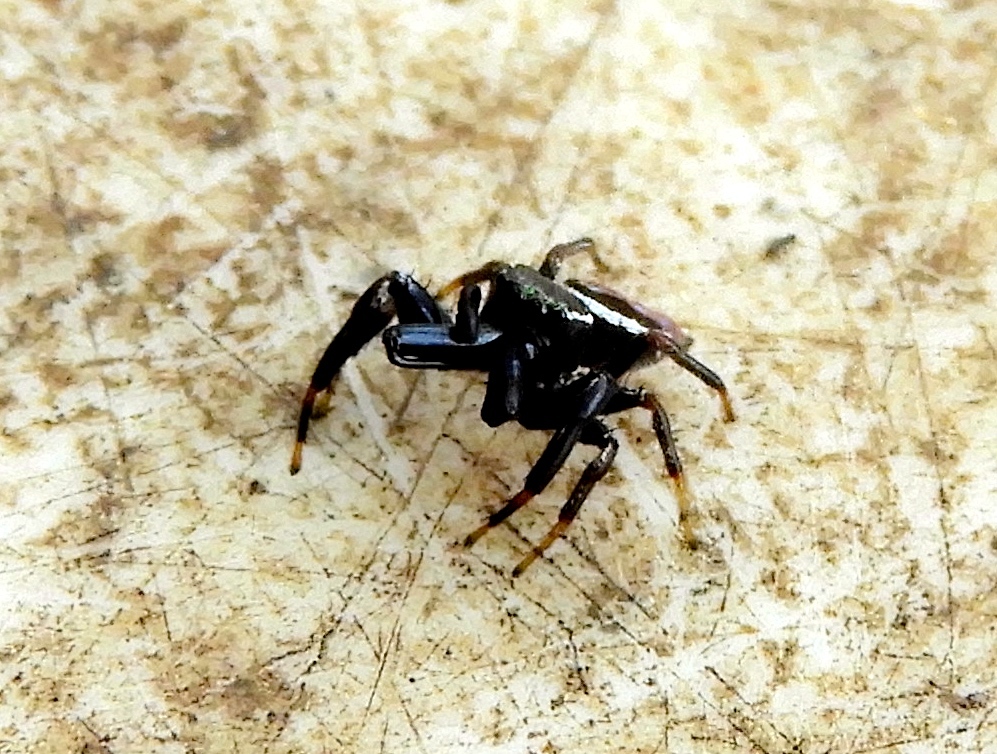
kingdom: Animalia
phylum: Arthropoda
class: Arachnida
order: Araneae
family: Salticidae
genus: Messua
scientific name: Messua limbata
